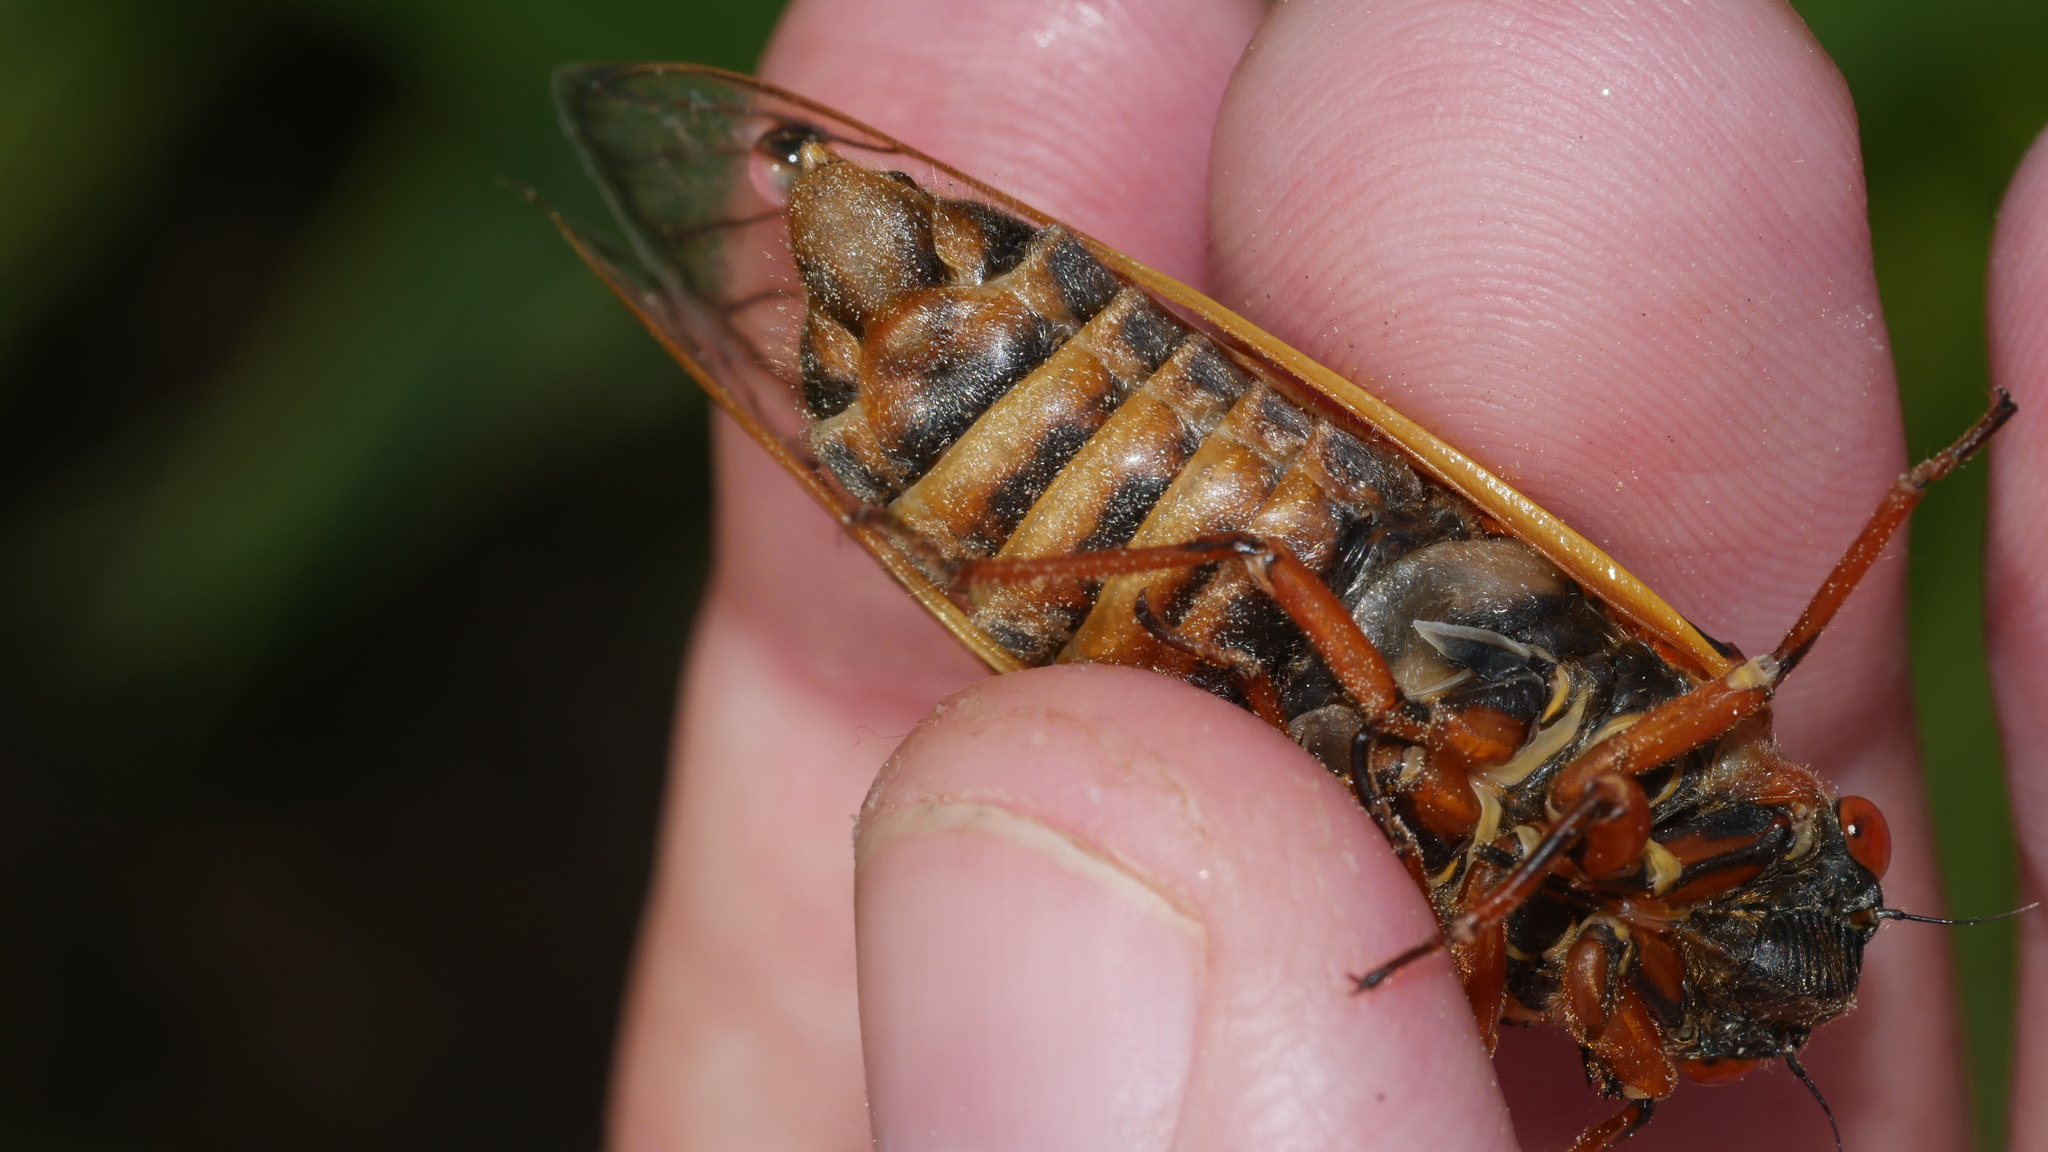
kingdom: Animalia
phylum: Arthropoda
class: Insecta
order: Hemiptera
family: Cicadidae
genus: Magicicada
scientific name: Magicicada septendecim
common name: Periodical cicada
